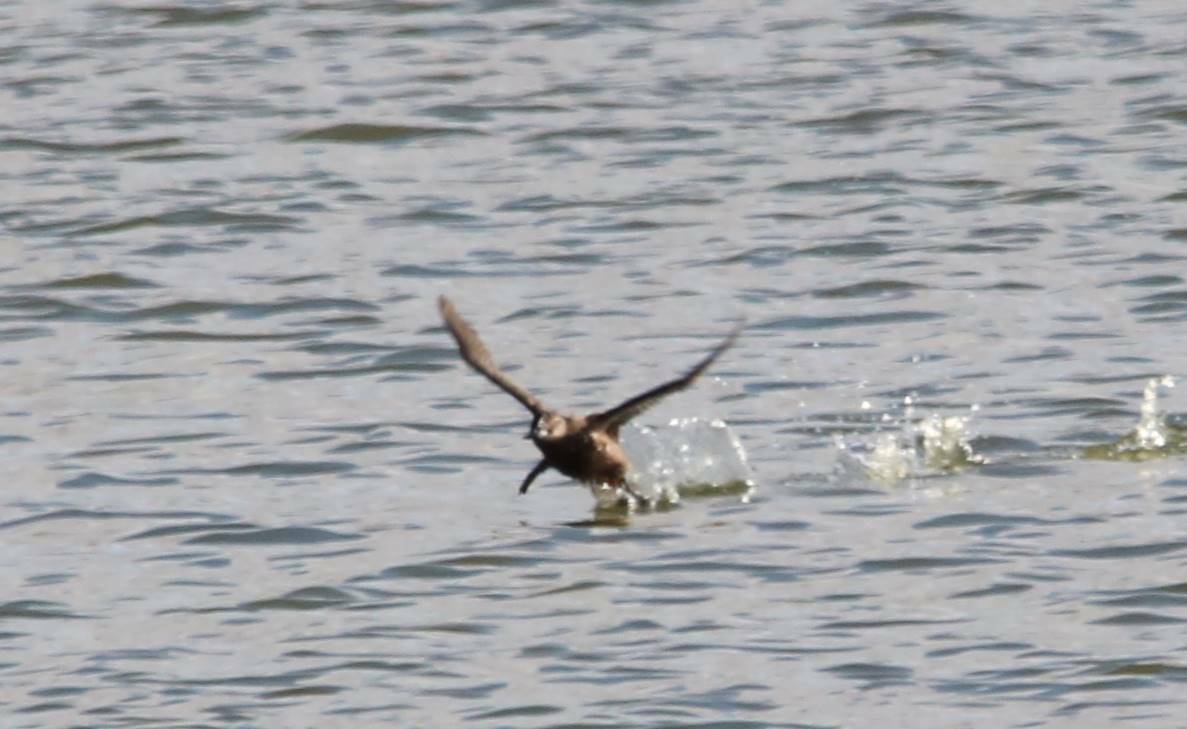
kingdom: Animalia
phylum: Chordata
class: Aves
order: Anseriformes
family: Anatidae
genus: Oxyura
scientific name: Oxyura leucocephala
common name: White-headed duck
